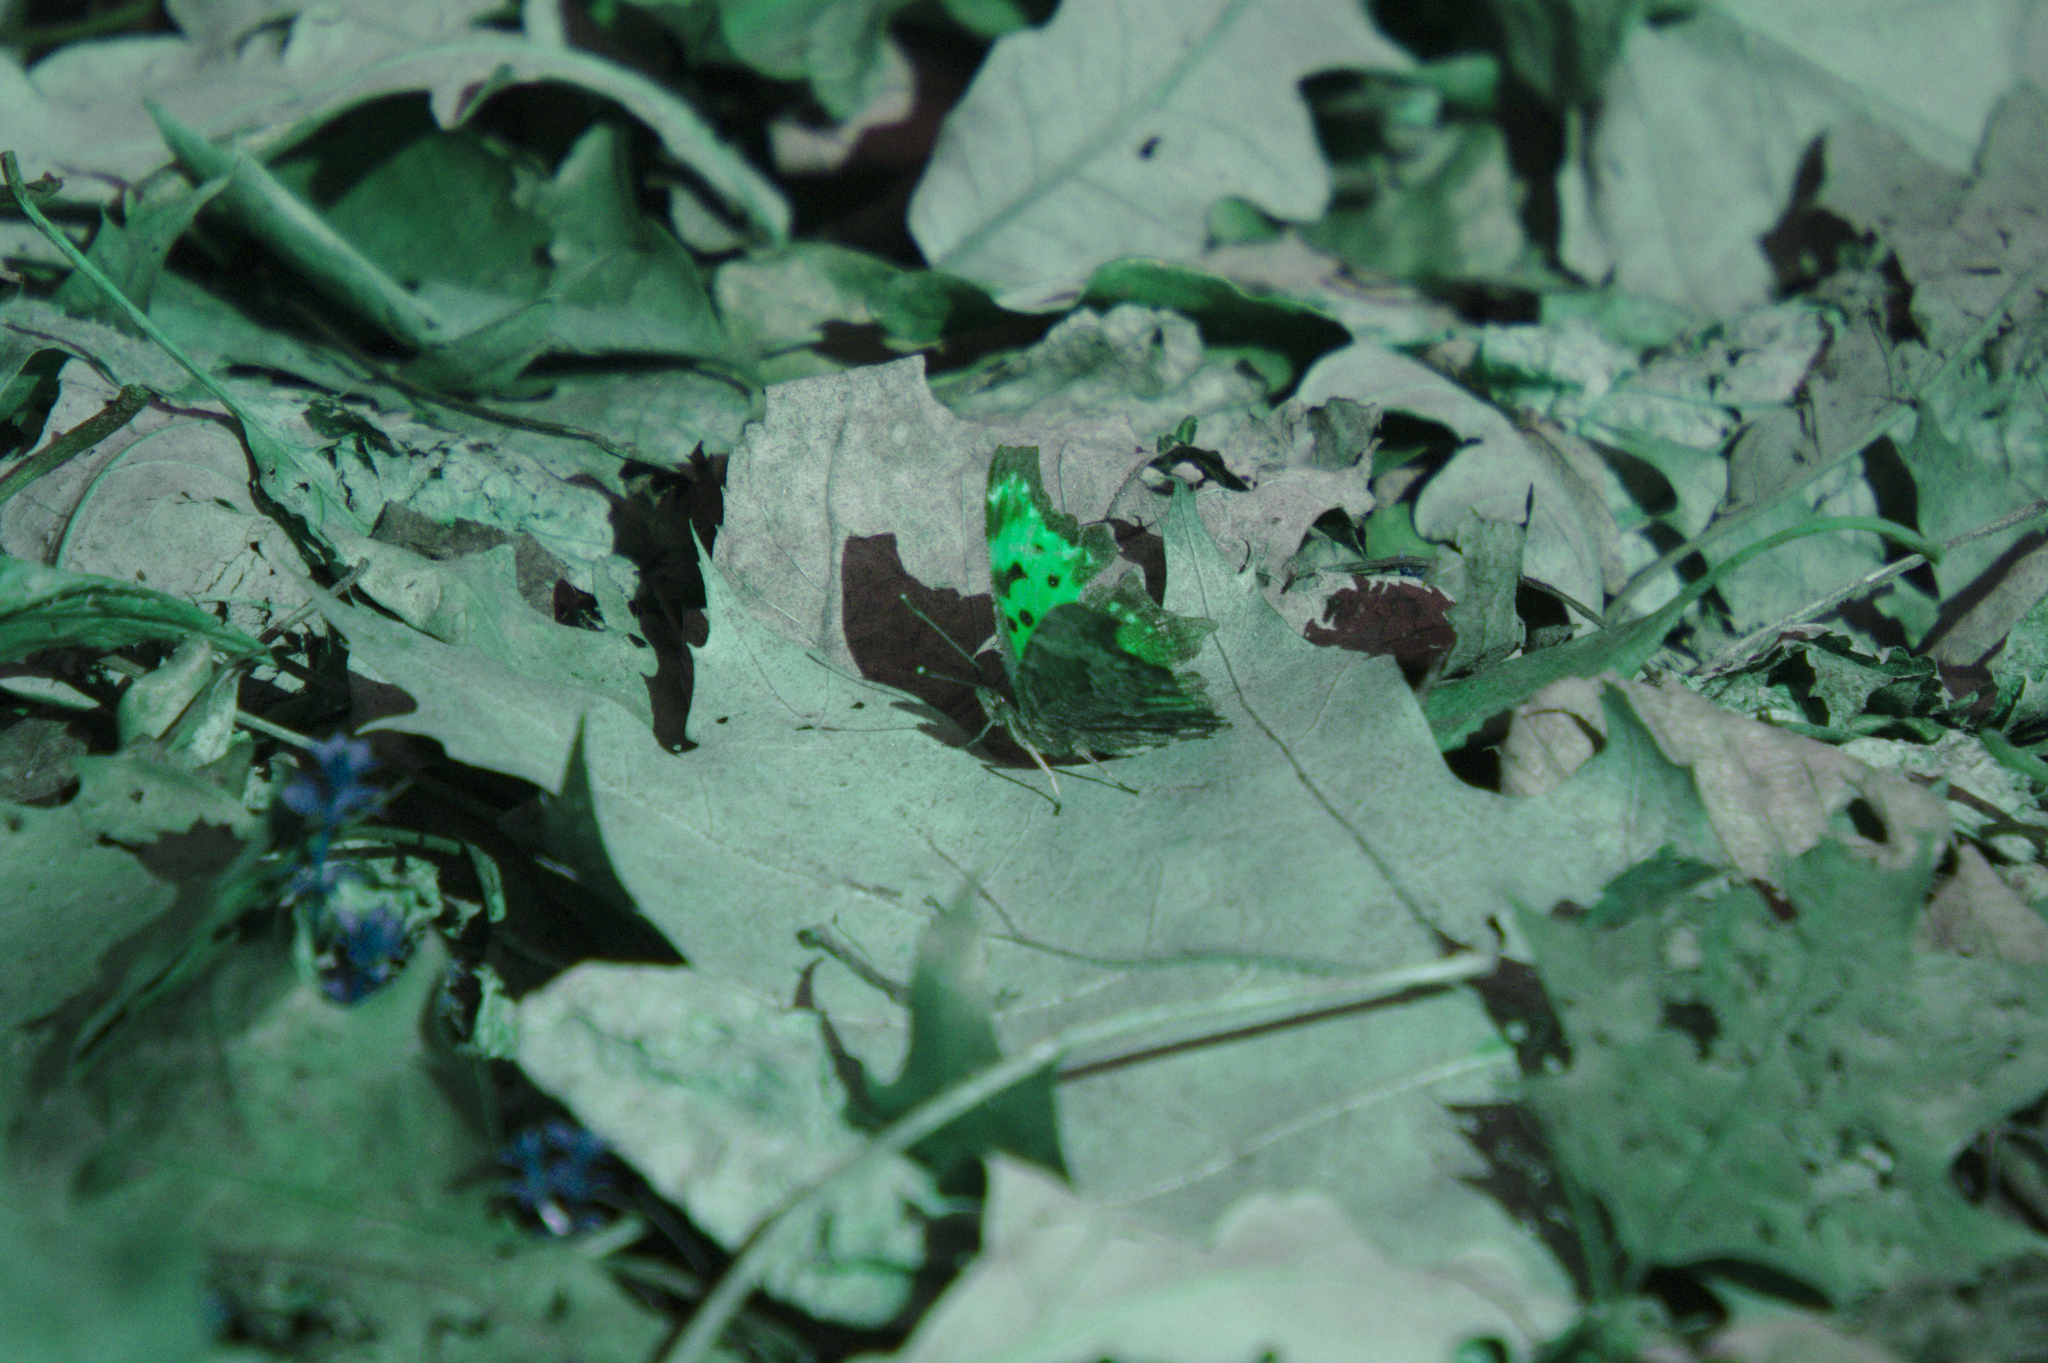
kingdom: Animalia
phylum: Arthropoda
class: Insecta
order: Lepidoptera
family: Nymphalidae
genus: Polygonia
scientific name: Polygonia progne
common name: Gray comma
